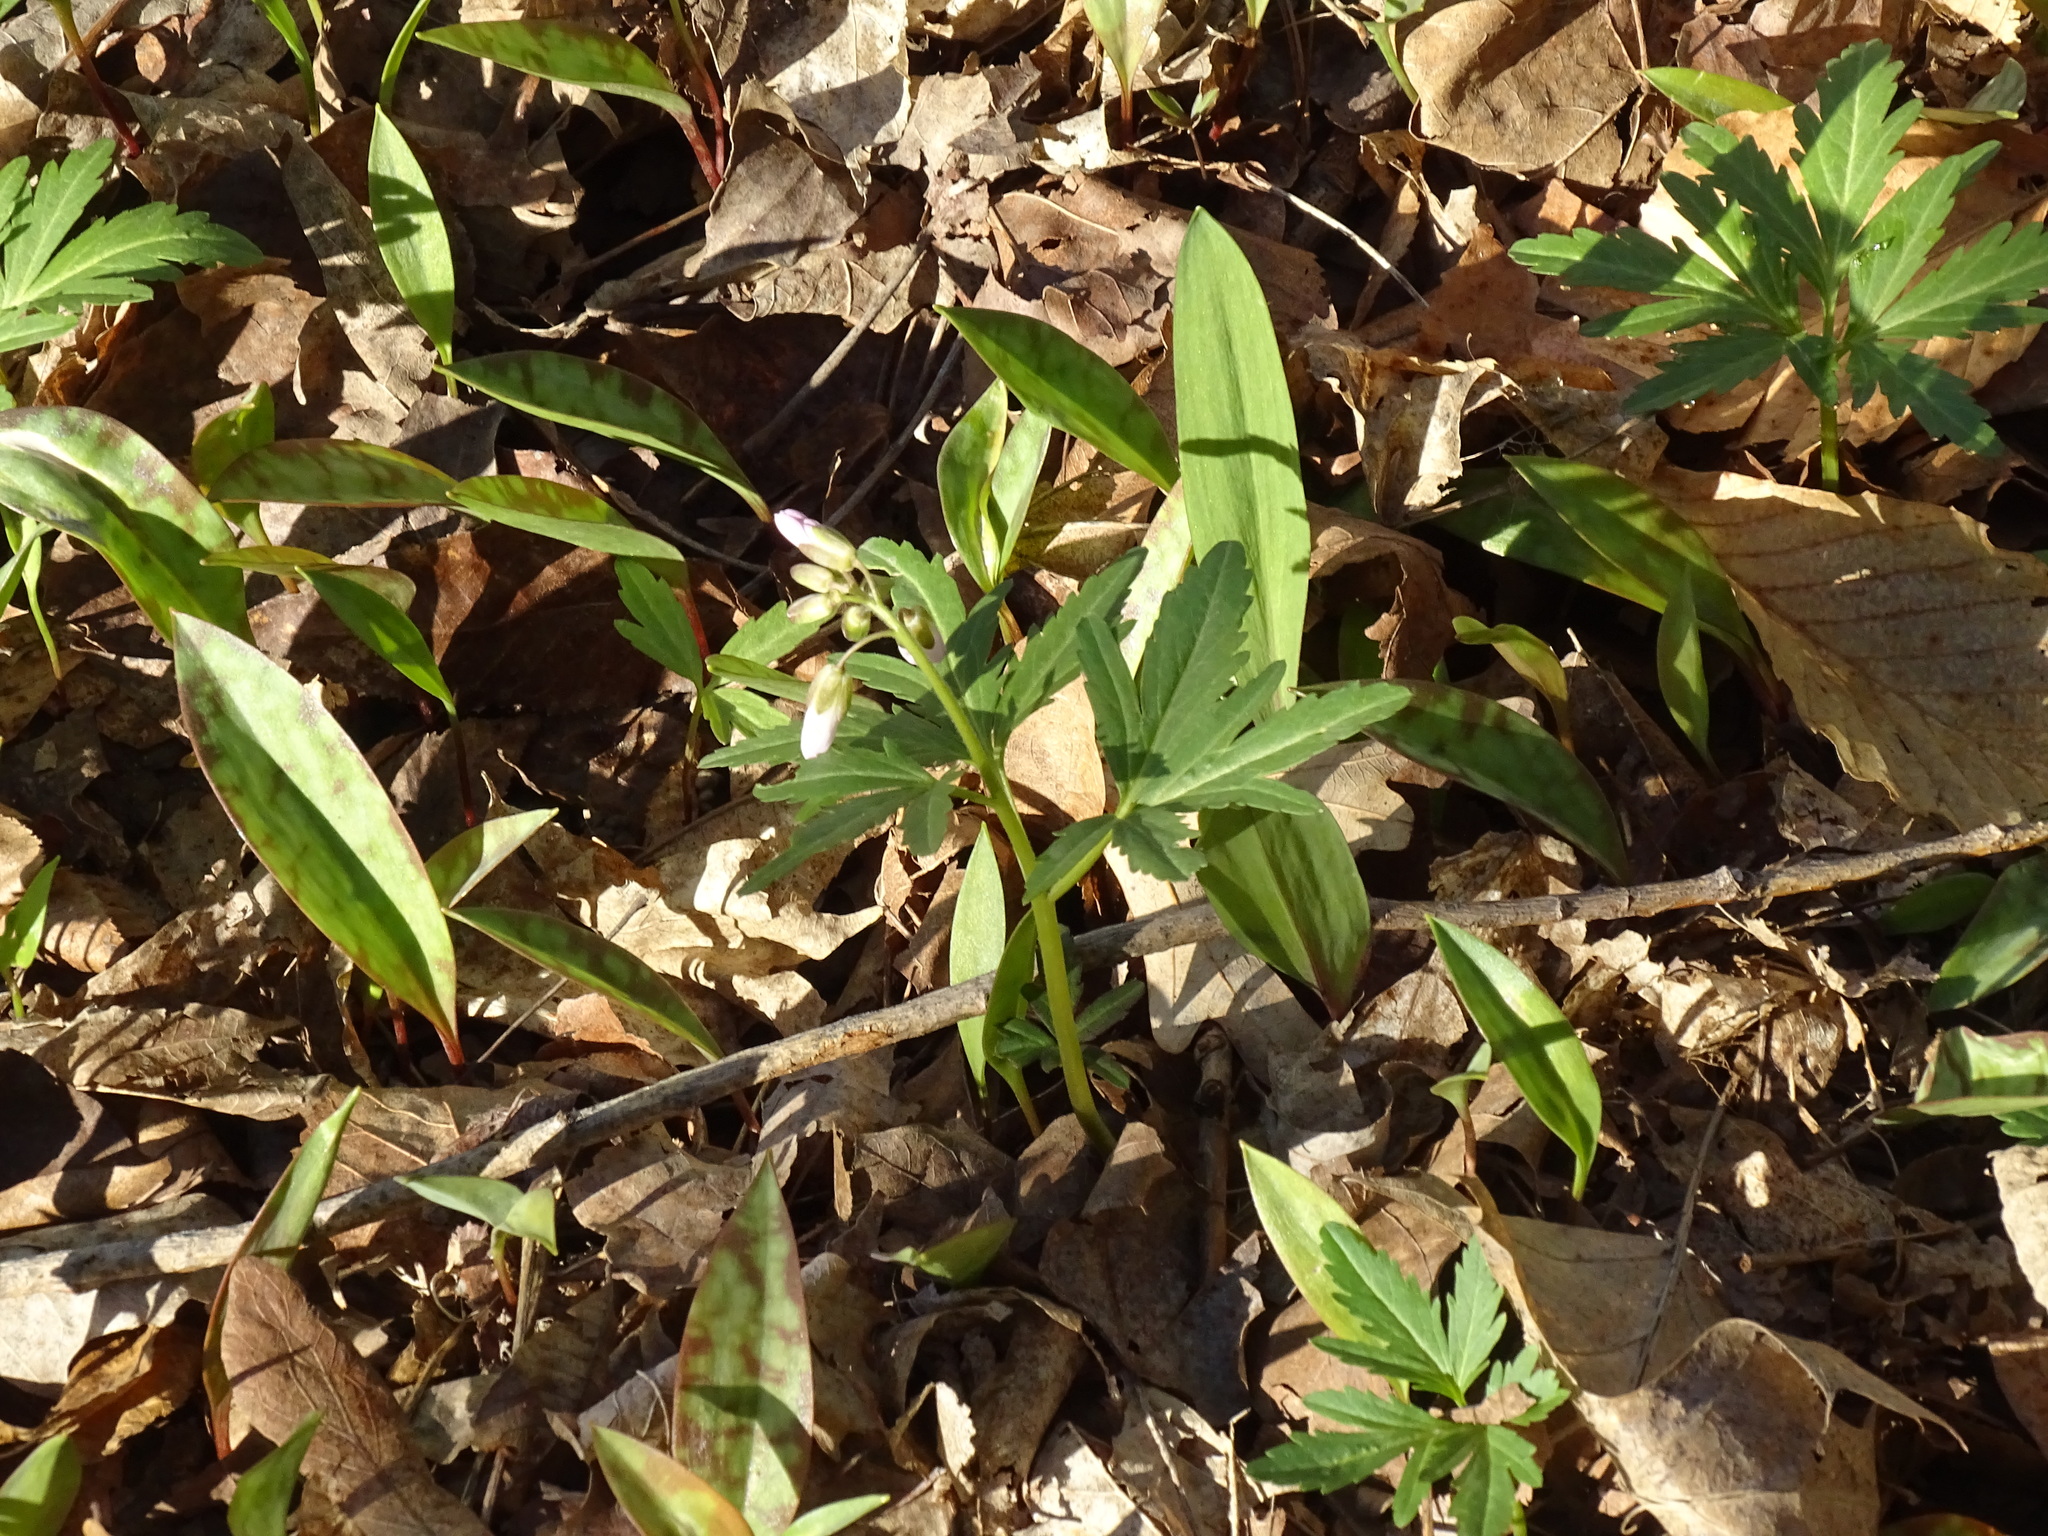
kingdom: Plantae
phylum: Tracheophyta
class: Magnoliopsida
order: Brassicales
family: Brassicaceae
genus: Cardamine
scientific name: Cardamine concatenata
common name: Cut-leaf toothcup
